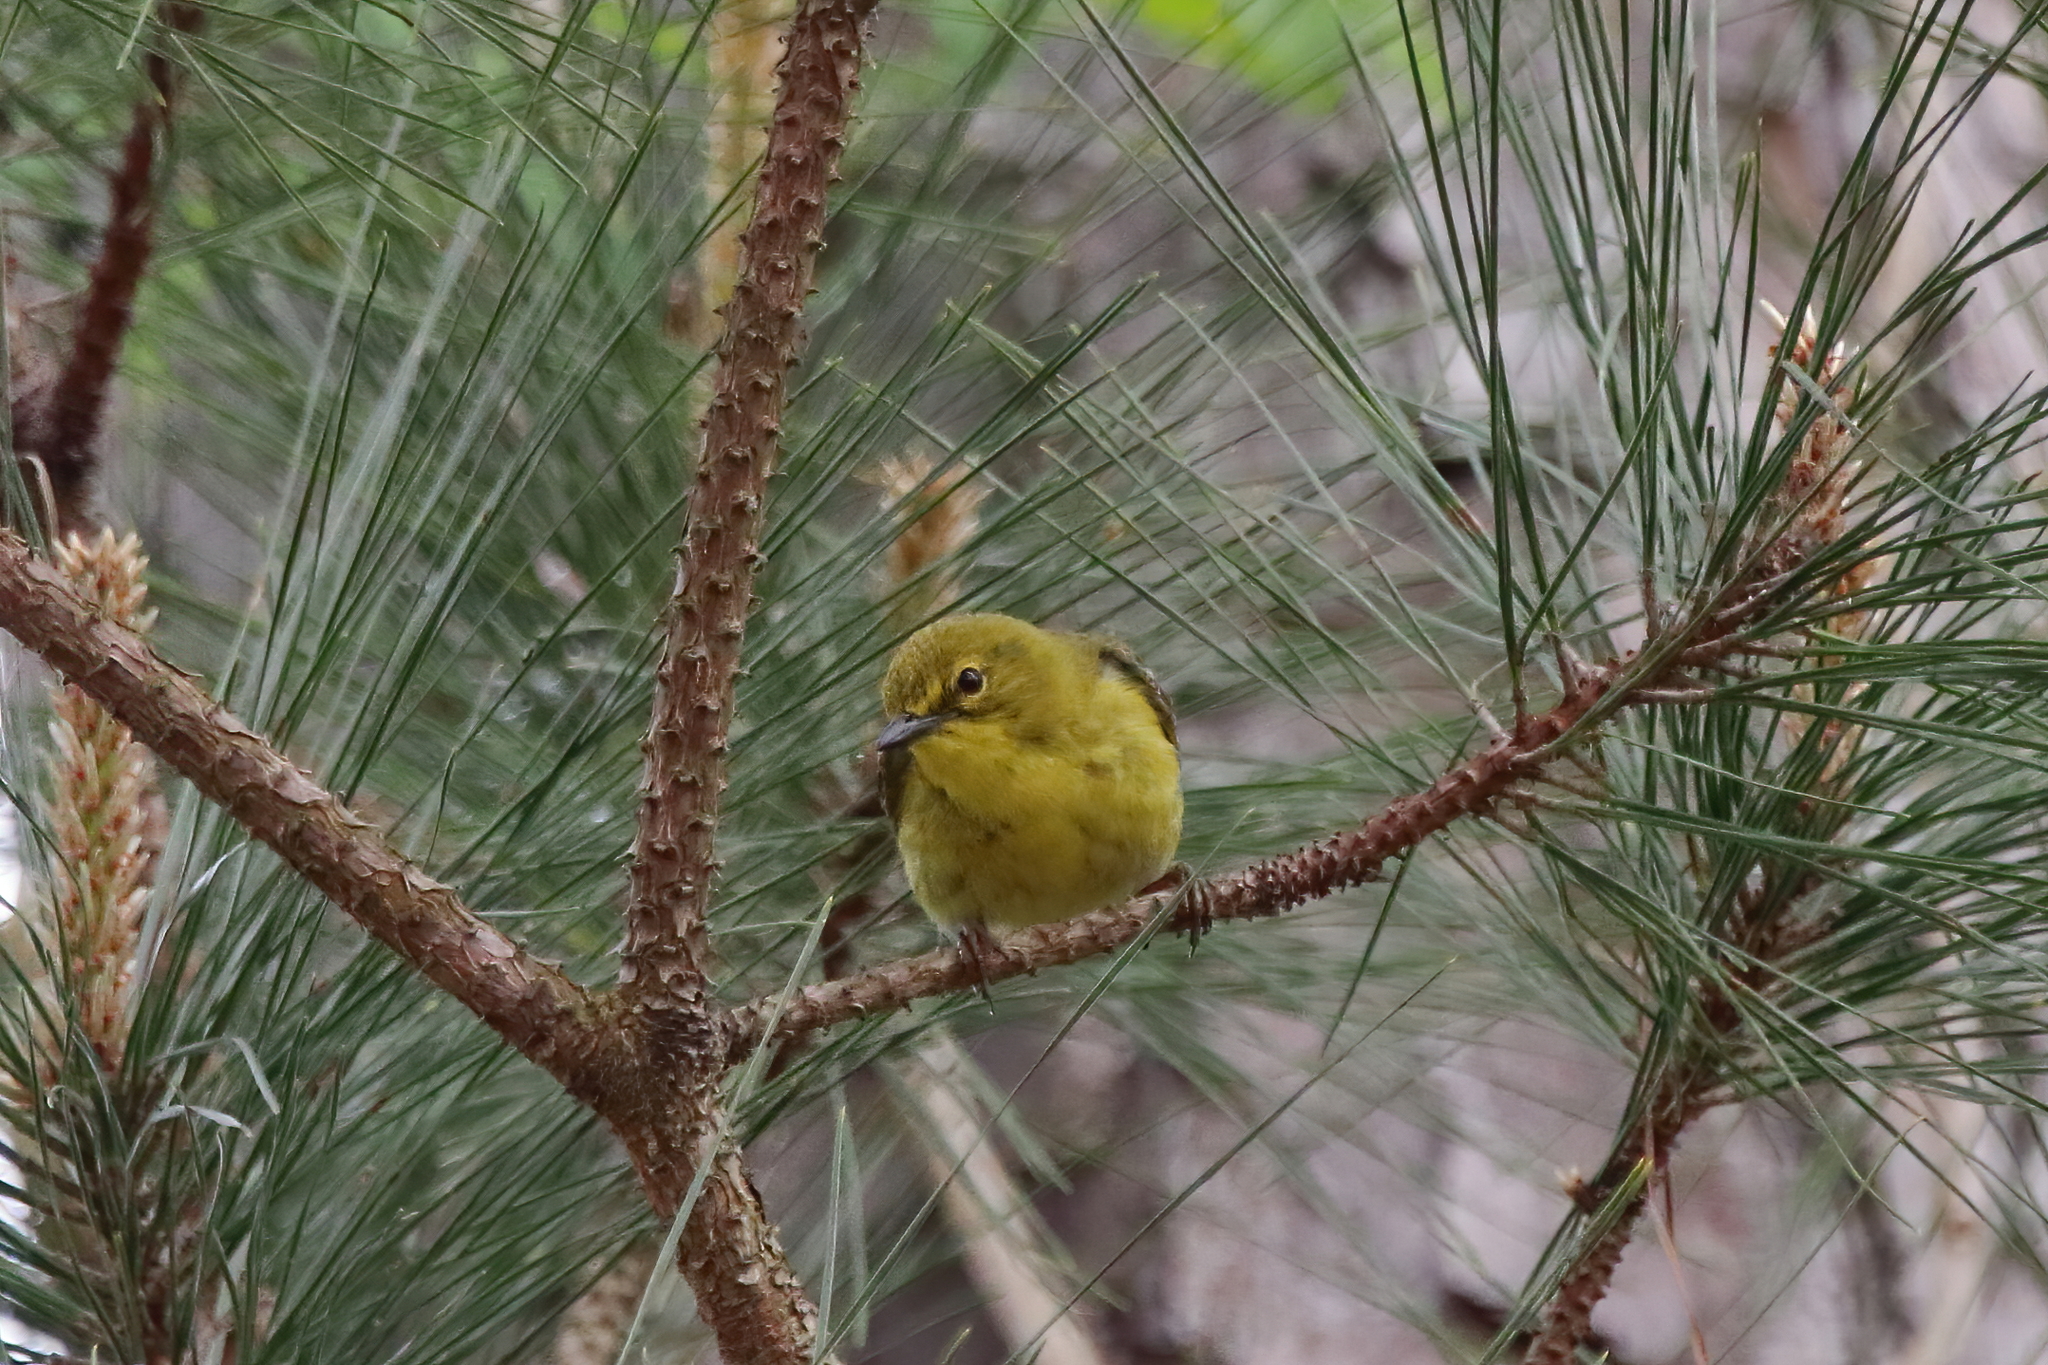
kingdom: Animalia
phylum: Chordata
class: Aves
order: Passeriformes
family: Parulidae
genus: Setophaga
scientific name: Setophaga pinus
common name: Pine warbler
